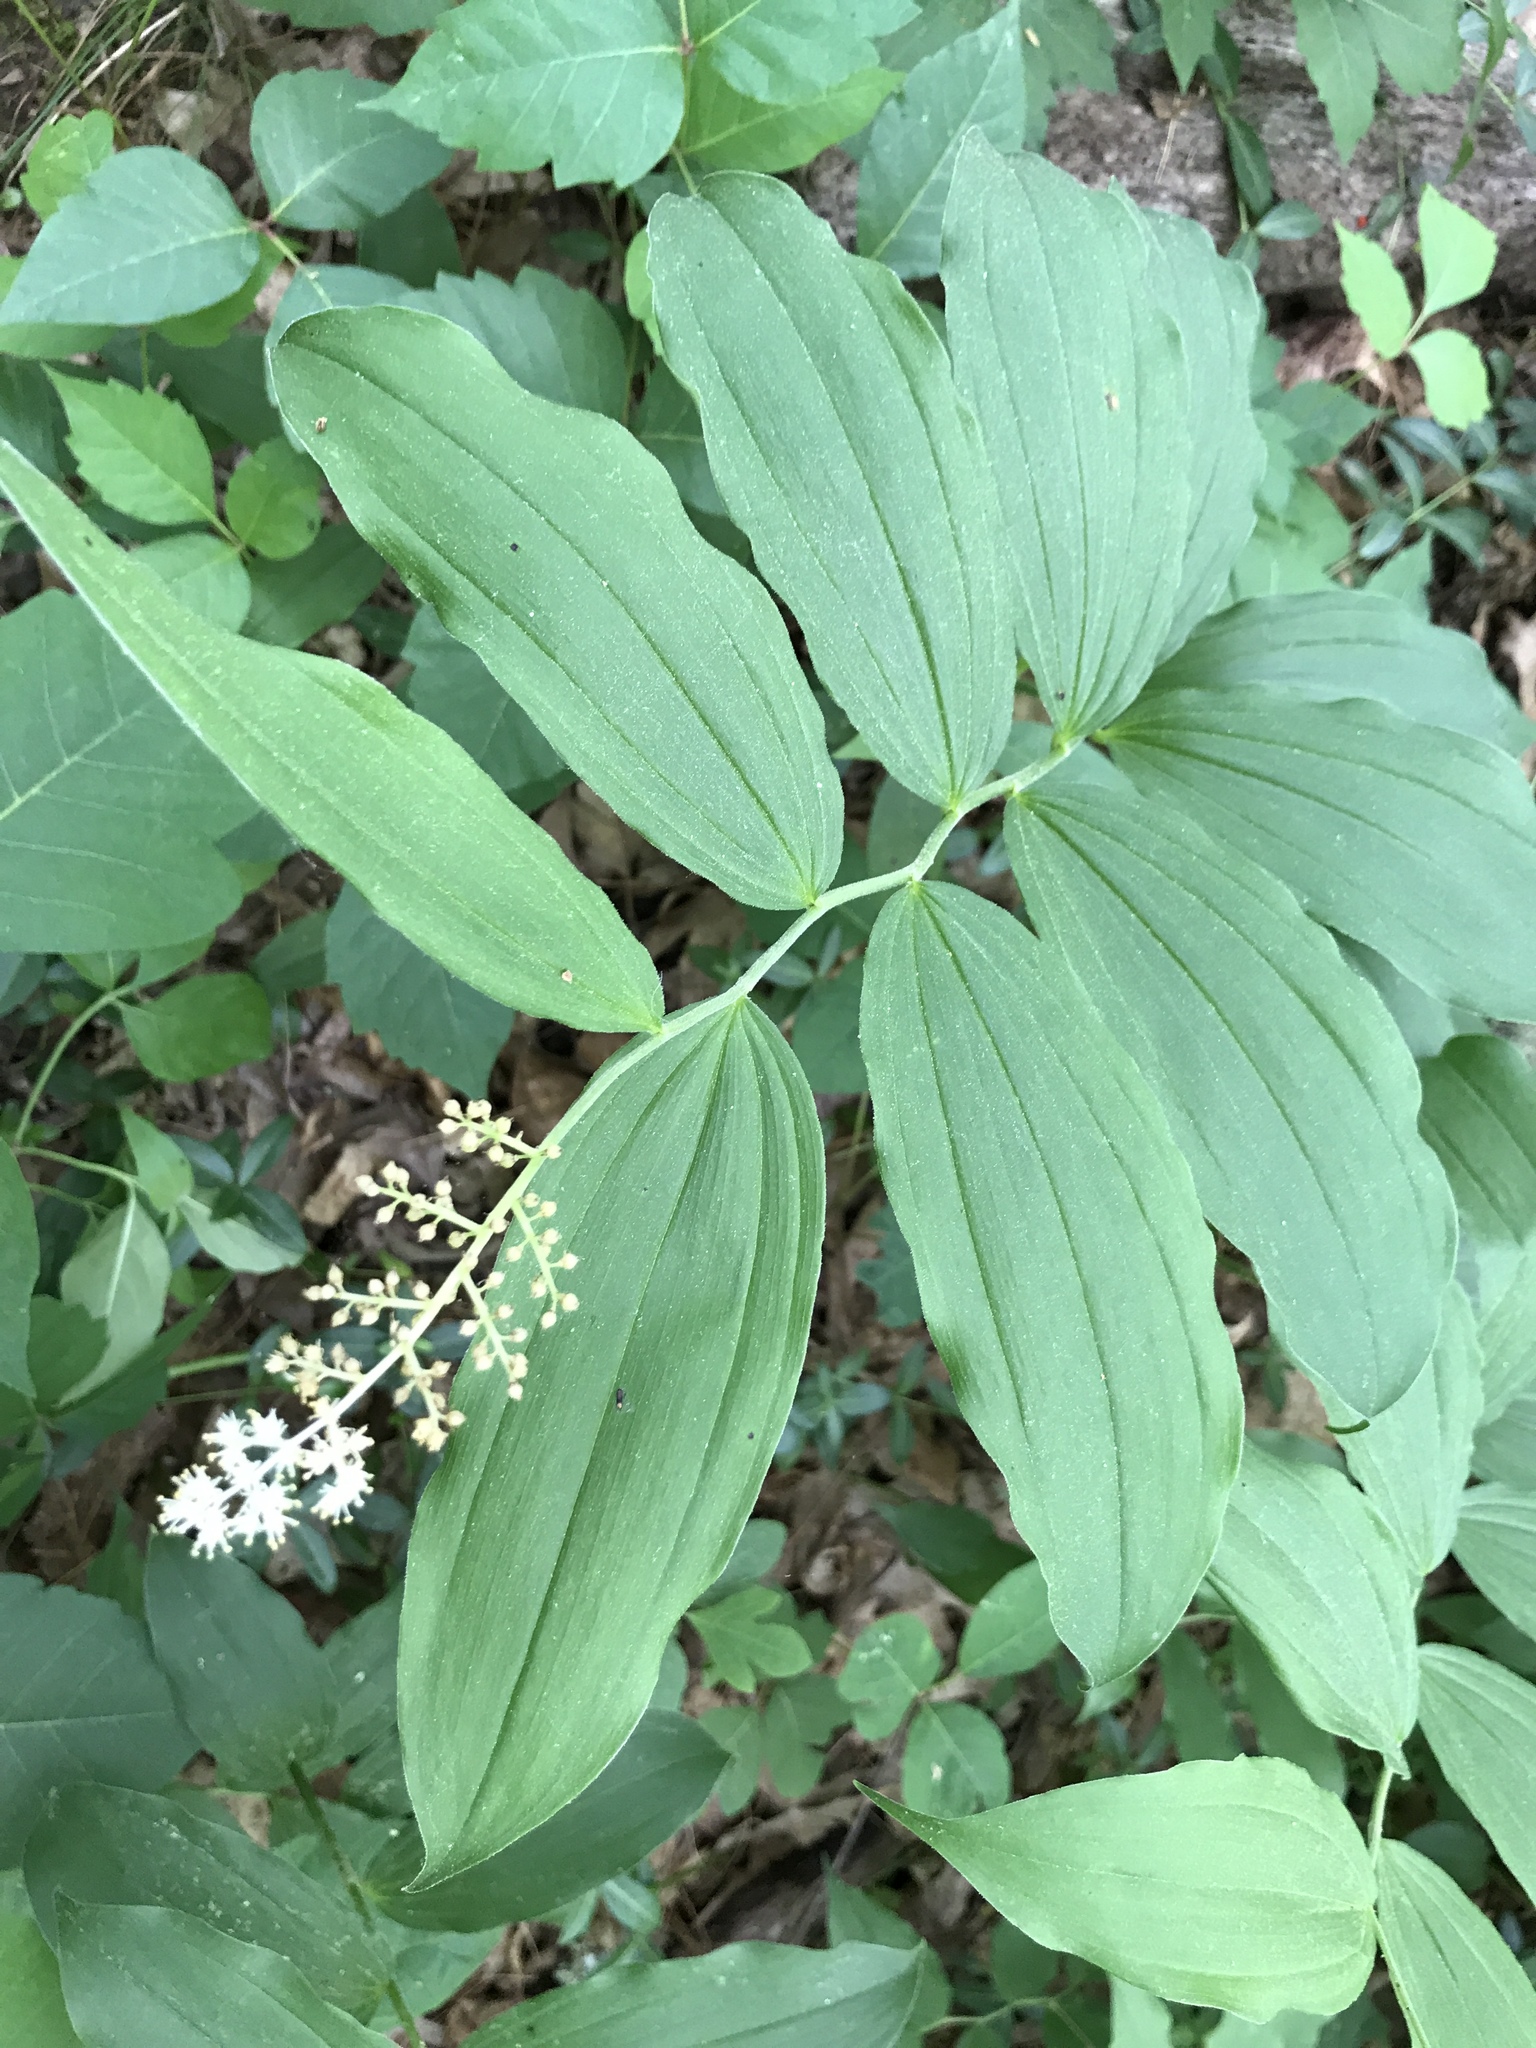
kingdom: Plantae
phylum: Tracheophyta
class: Liliopsida
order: Asparagales
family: Asparagaceae
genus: Maianthemum
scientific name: Maianthemum racemosum
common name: False spikenard
